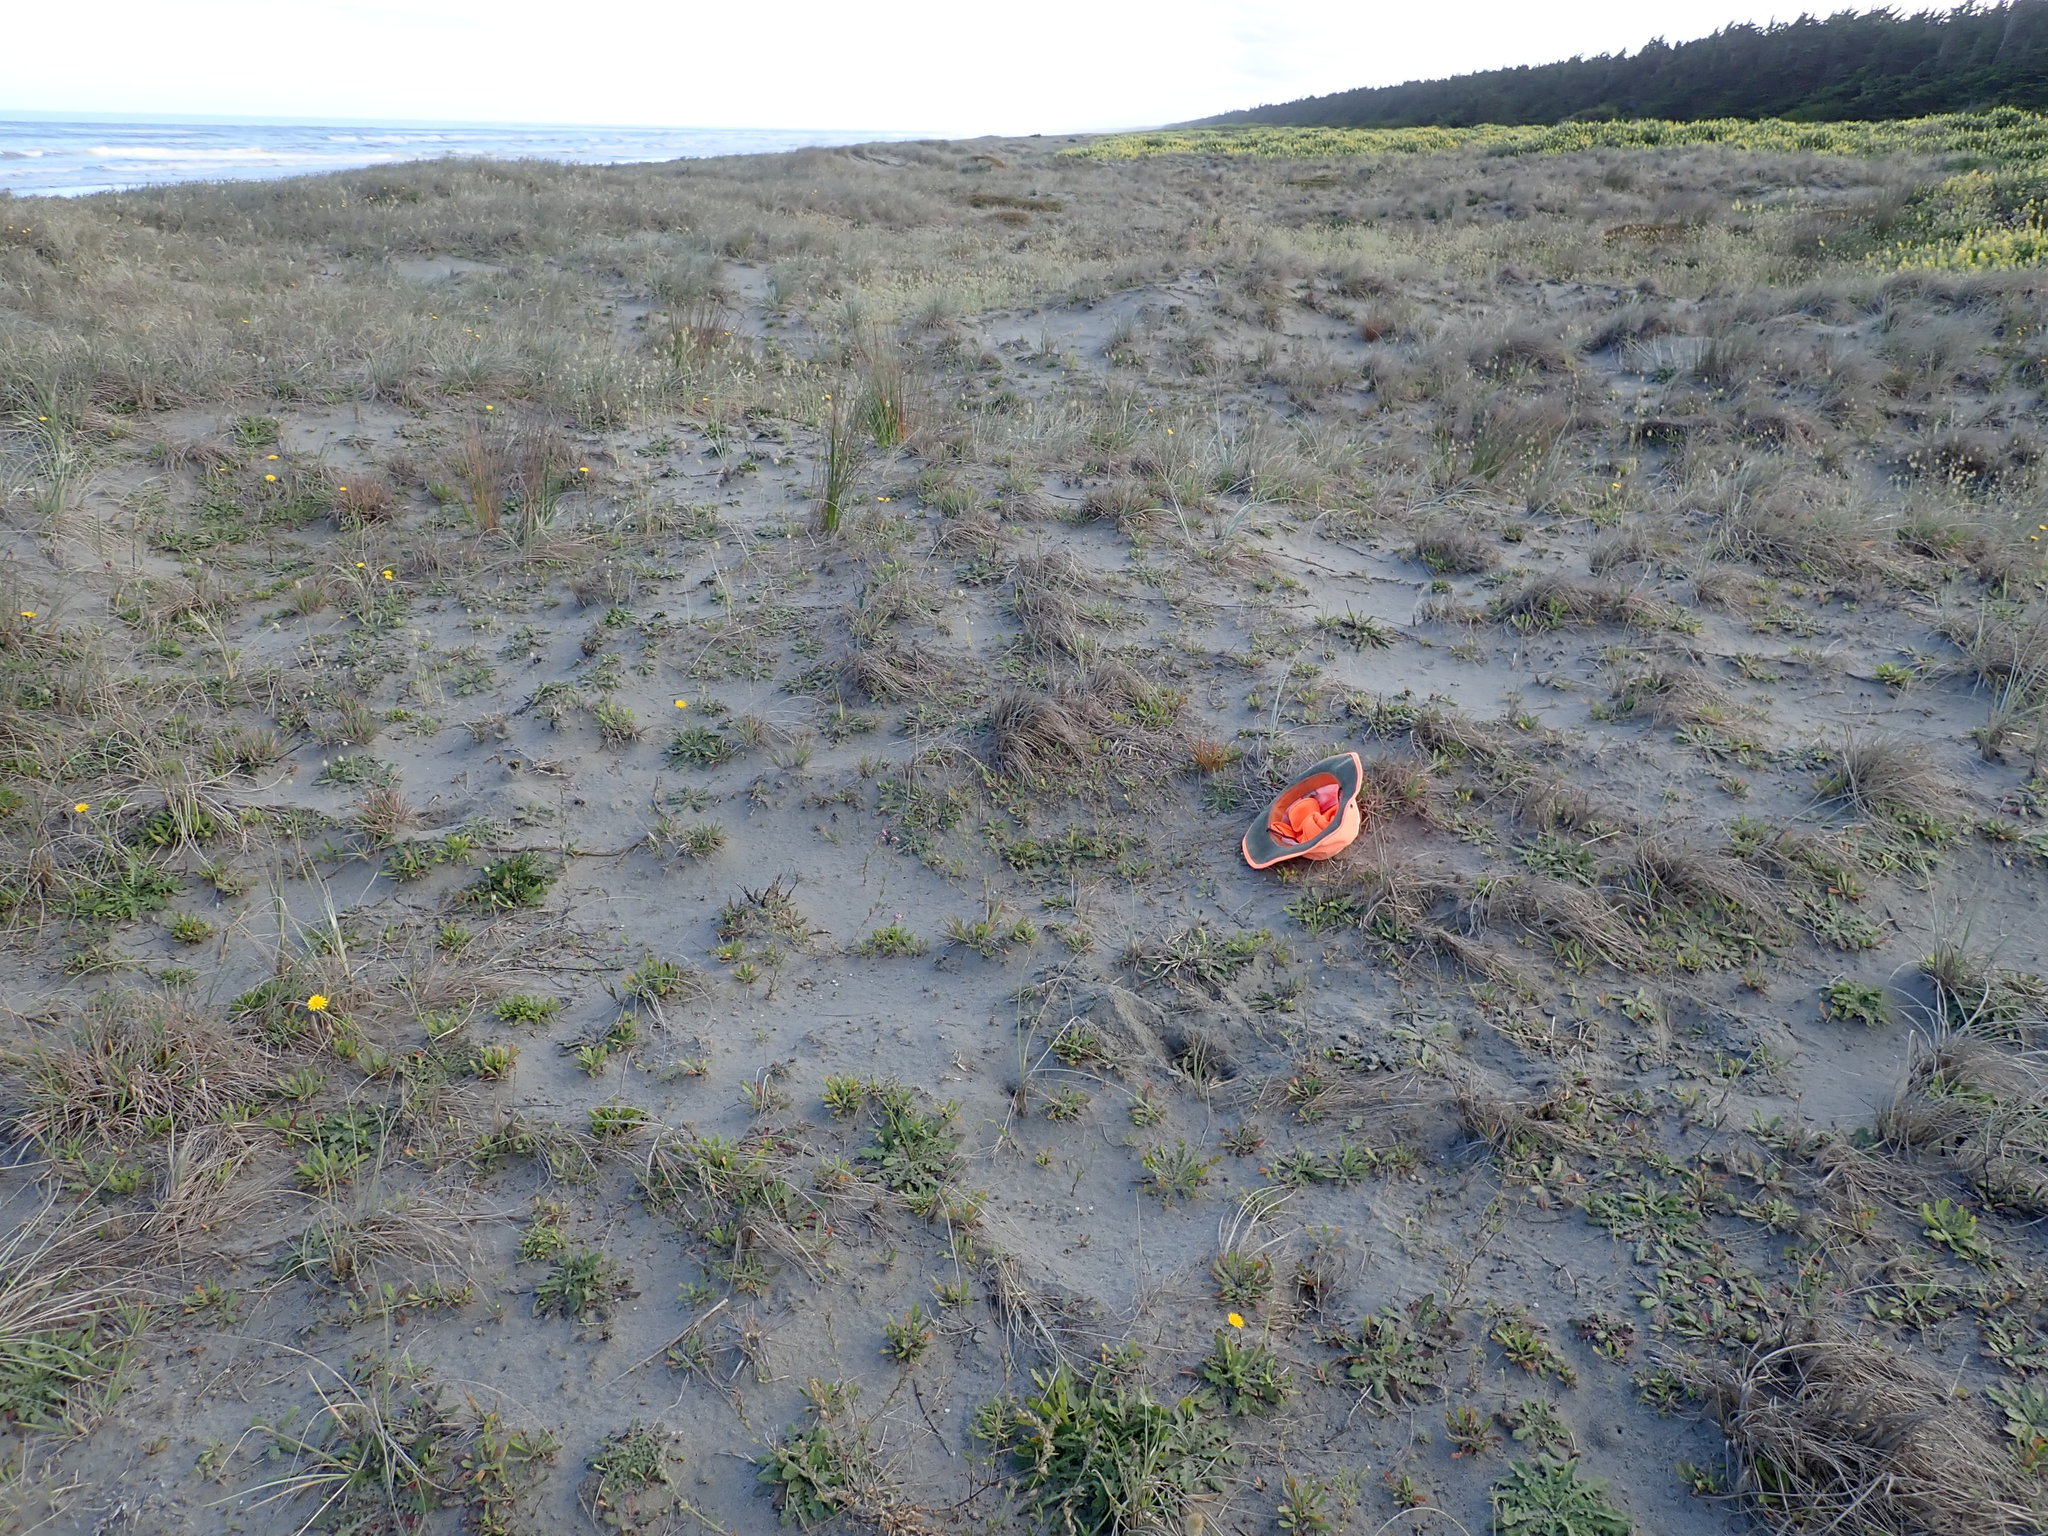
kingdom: Plantae
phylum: Tracheophyta
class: Magnoliopsida
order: Caryophyllales
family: Caryophyllaceae
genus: Silene
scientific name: Silene gallica
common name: Small-flowered catchfly
